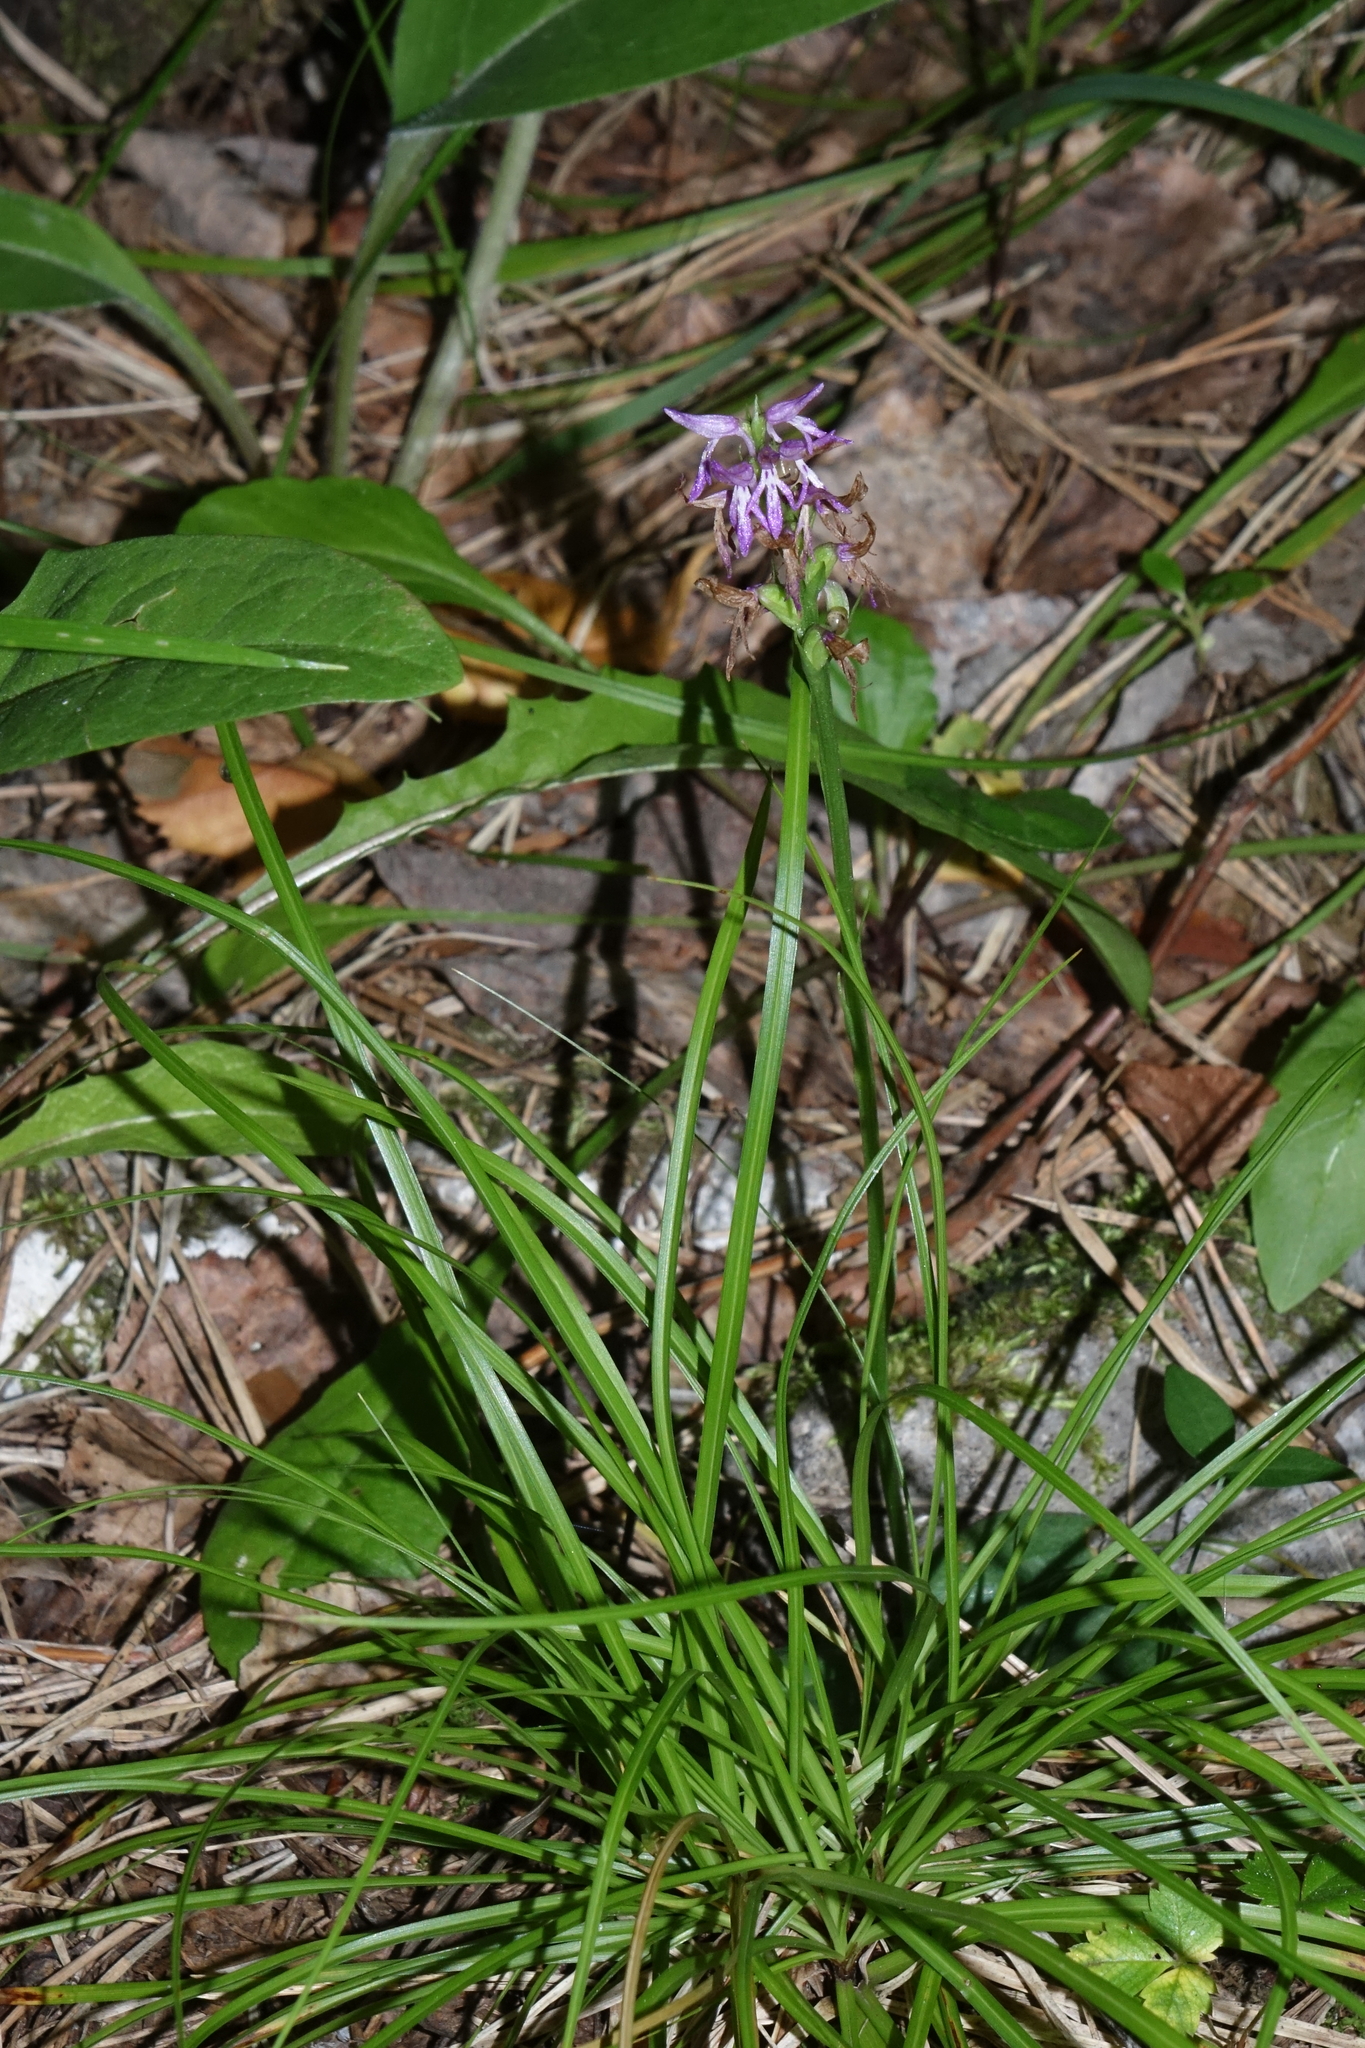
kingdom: Plantae
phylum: Tracheophyta
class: Liliopsida
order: Asparagales
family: Orchidaceae
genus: Hemipilia
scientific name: Hemipilia cucullata
